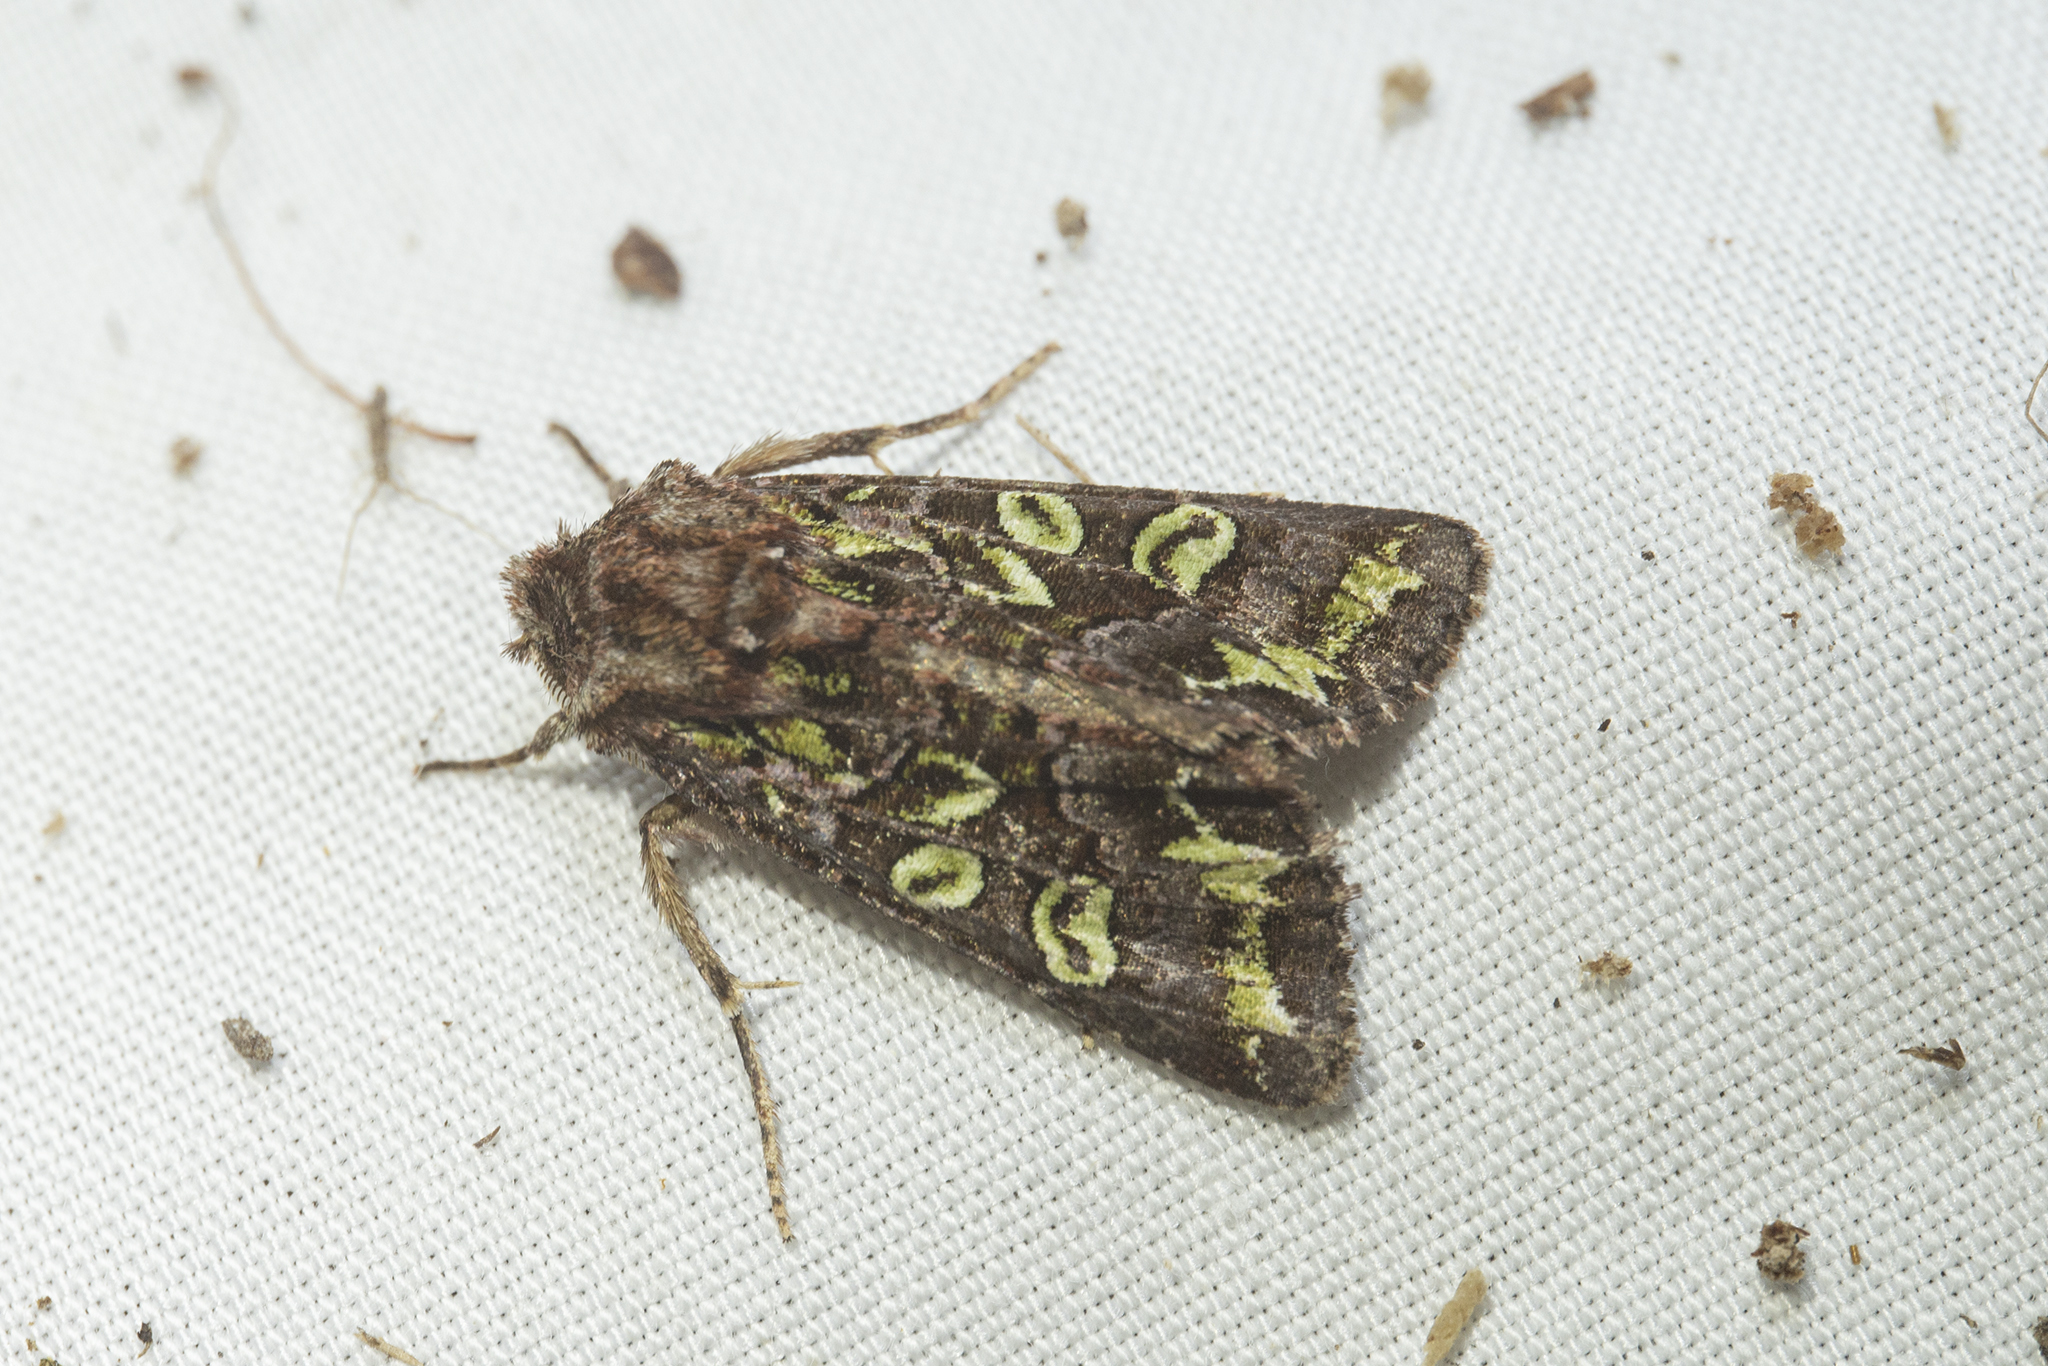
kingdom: Animalia
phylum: Arthropoda
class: Insecta
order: Lepidoptera
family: Noctuidae
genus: Ichneutica
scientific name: Ichneutica chlorodonta
